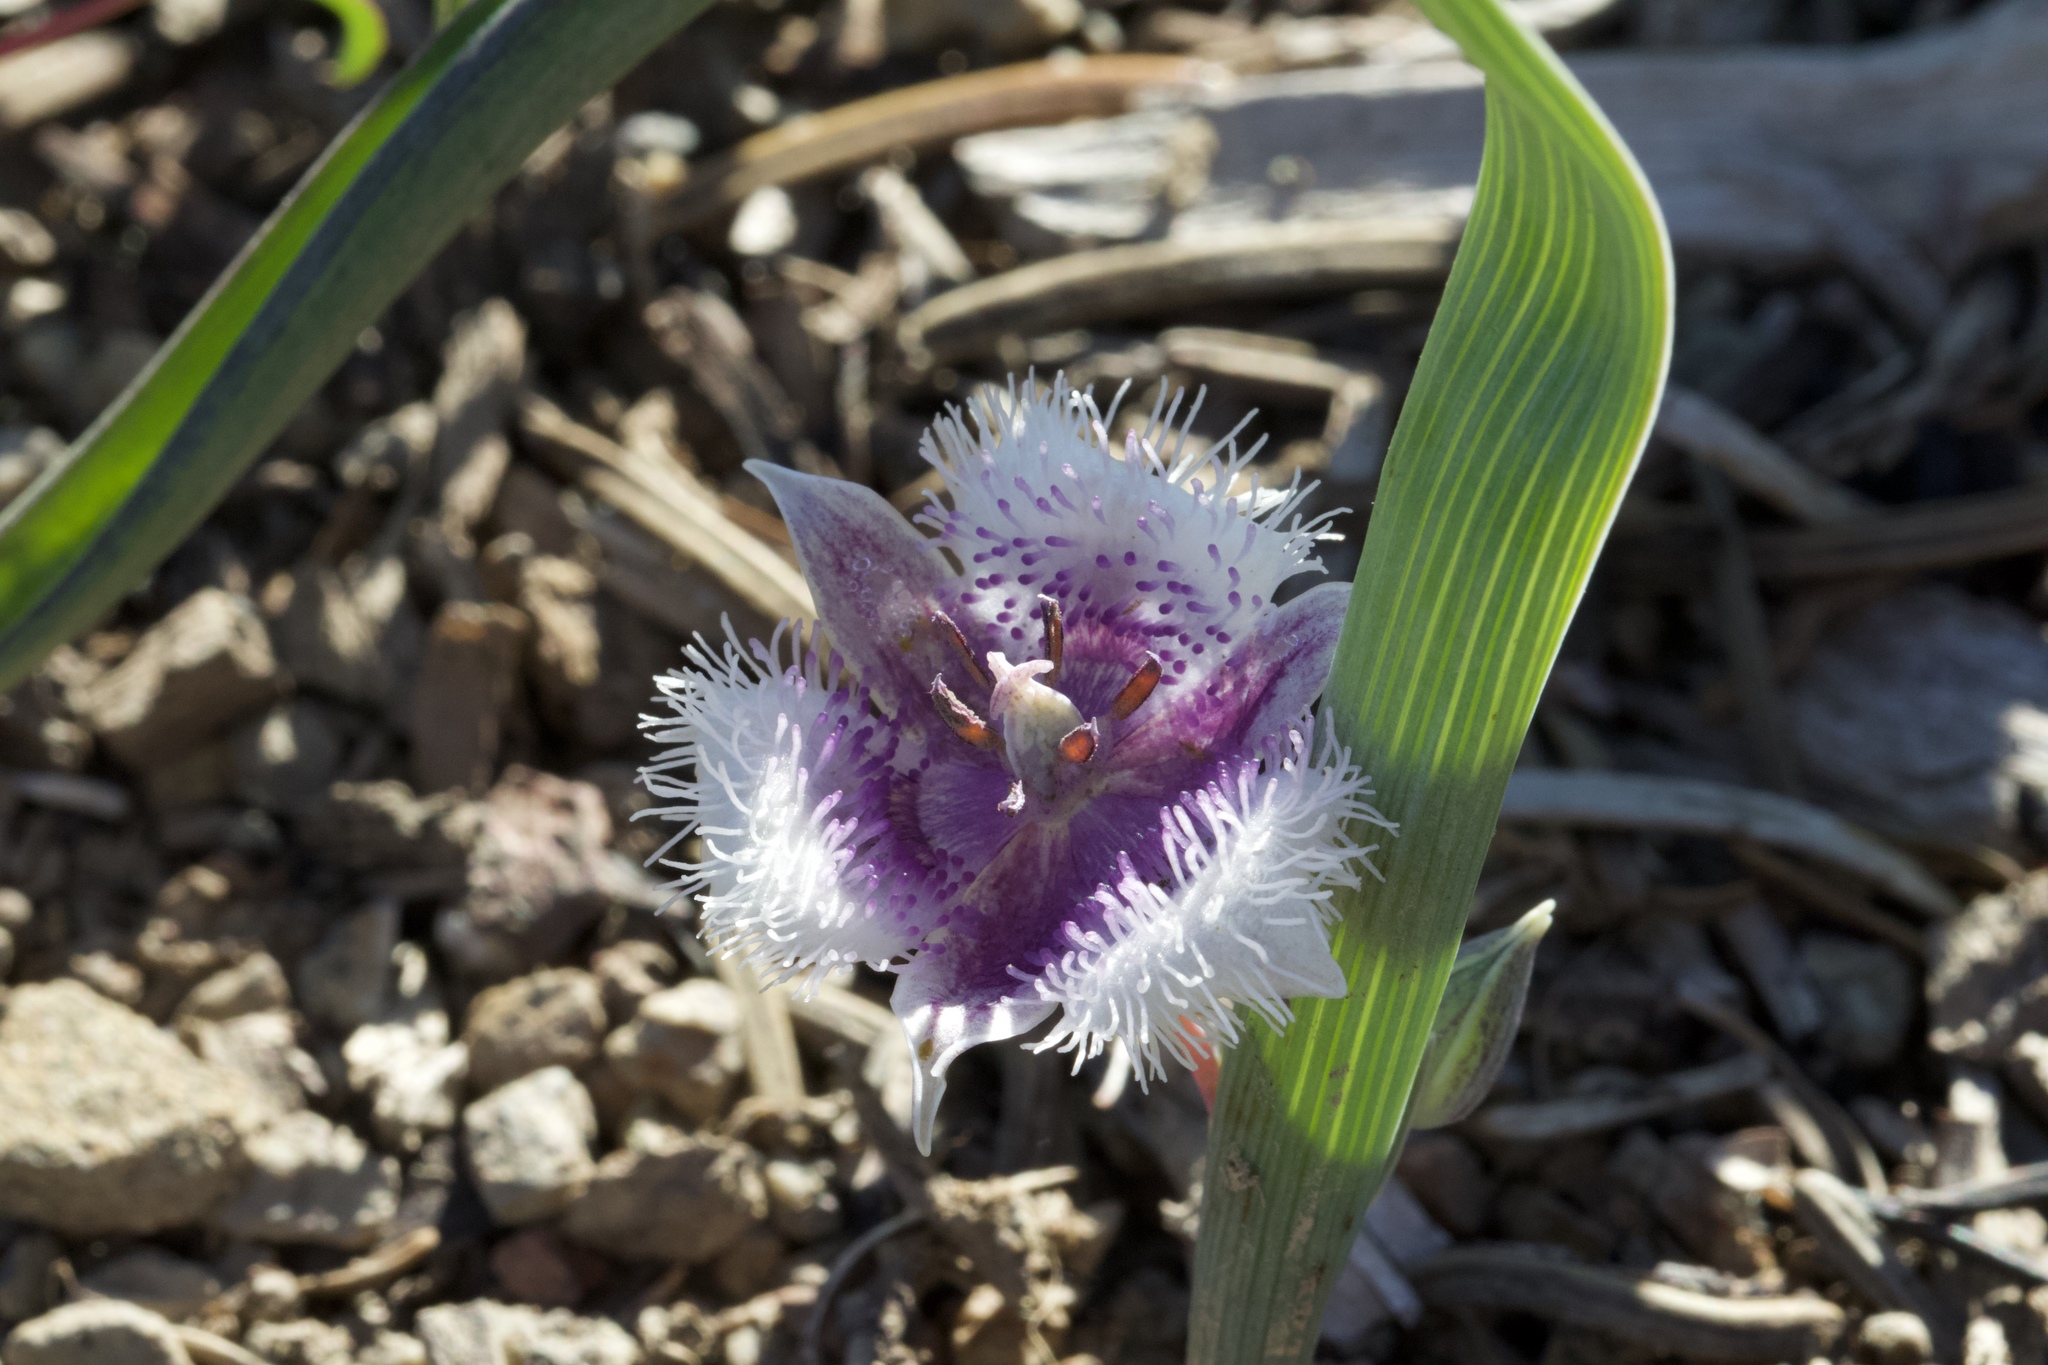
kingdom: Plantae
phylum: Tracheophyta
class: Liliopsida
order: Liliales
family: Liliaceae
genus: Calochortus
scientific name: Calochortus coeruleus
